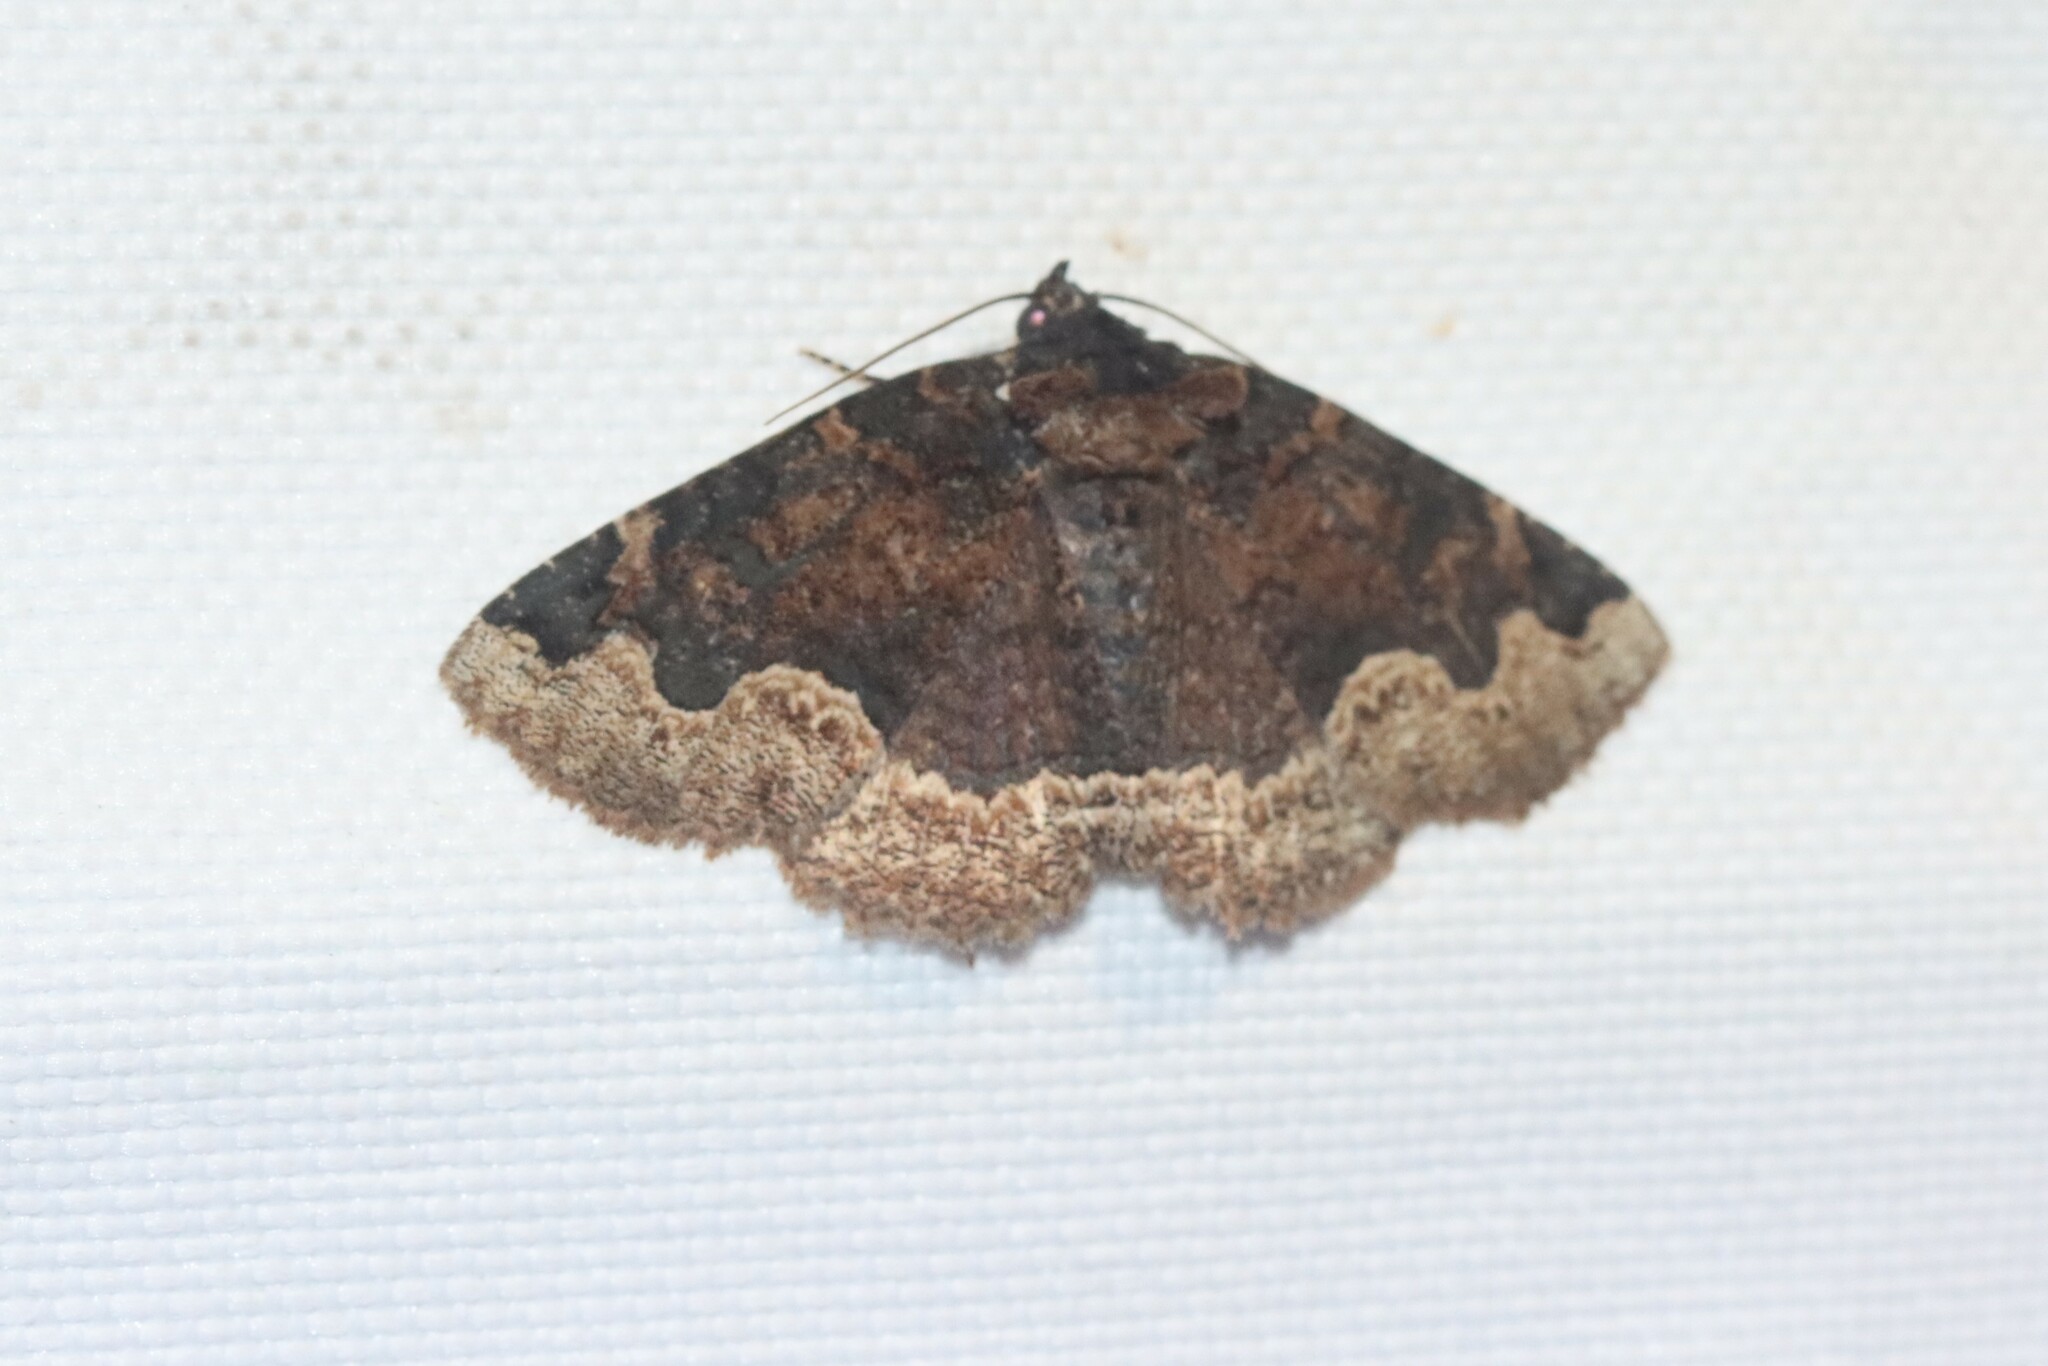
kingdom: Animalia
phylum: Arthropoda
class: Insecta
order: Lepidoptera
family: Erebidae
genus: Zale
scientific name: Zale horrida
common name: Horrid zale moth
